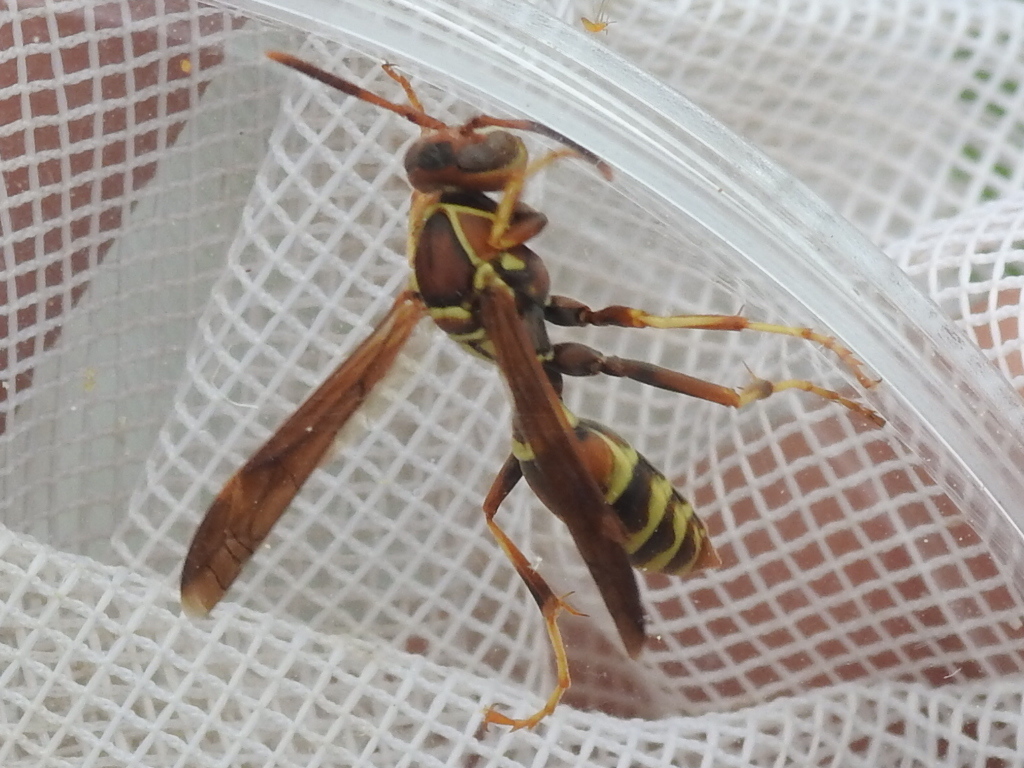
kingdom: Animalia
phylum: Arthropoda
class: Insecta
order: Hymenoptera
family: Eumenidae
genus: Polistes
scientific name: Polistes dorsalis
